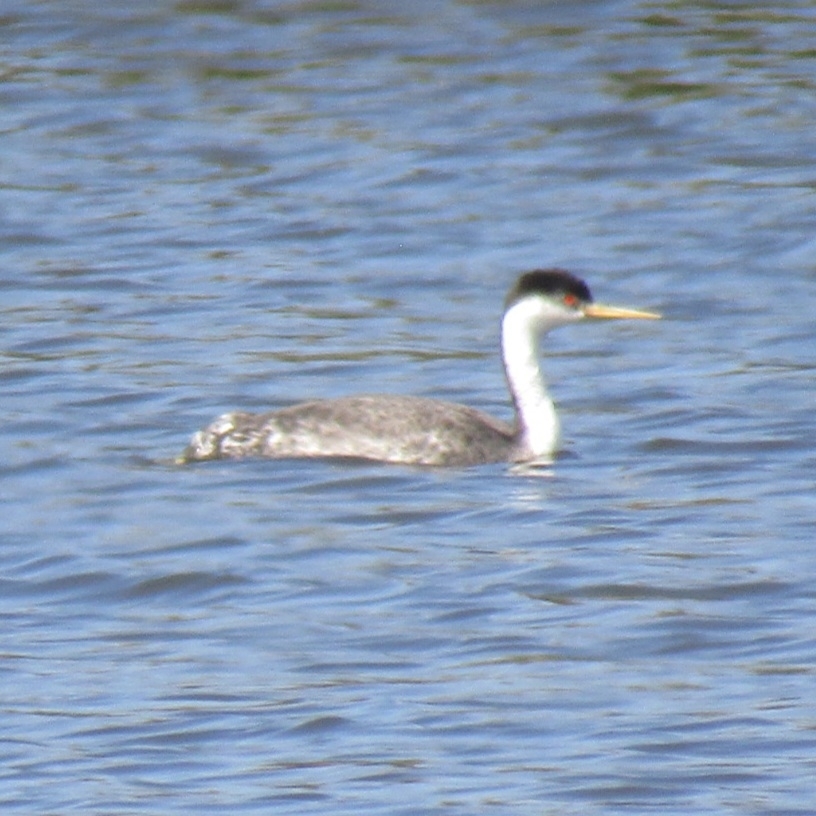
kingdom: Animalia
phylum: Chordata
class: Aves
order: Podicipediformes
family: Podicipedidae
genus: Aechmophorus
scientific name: Aechmophorus occidentalis
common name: Western grebe
